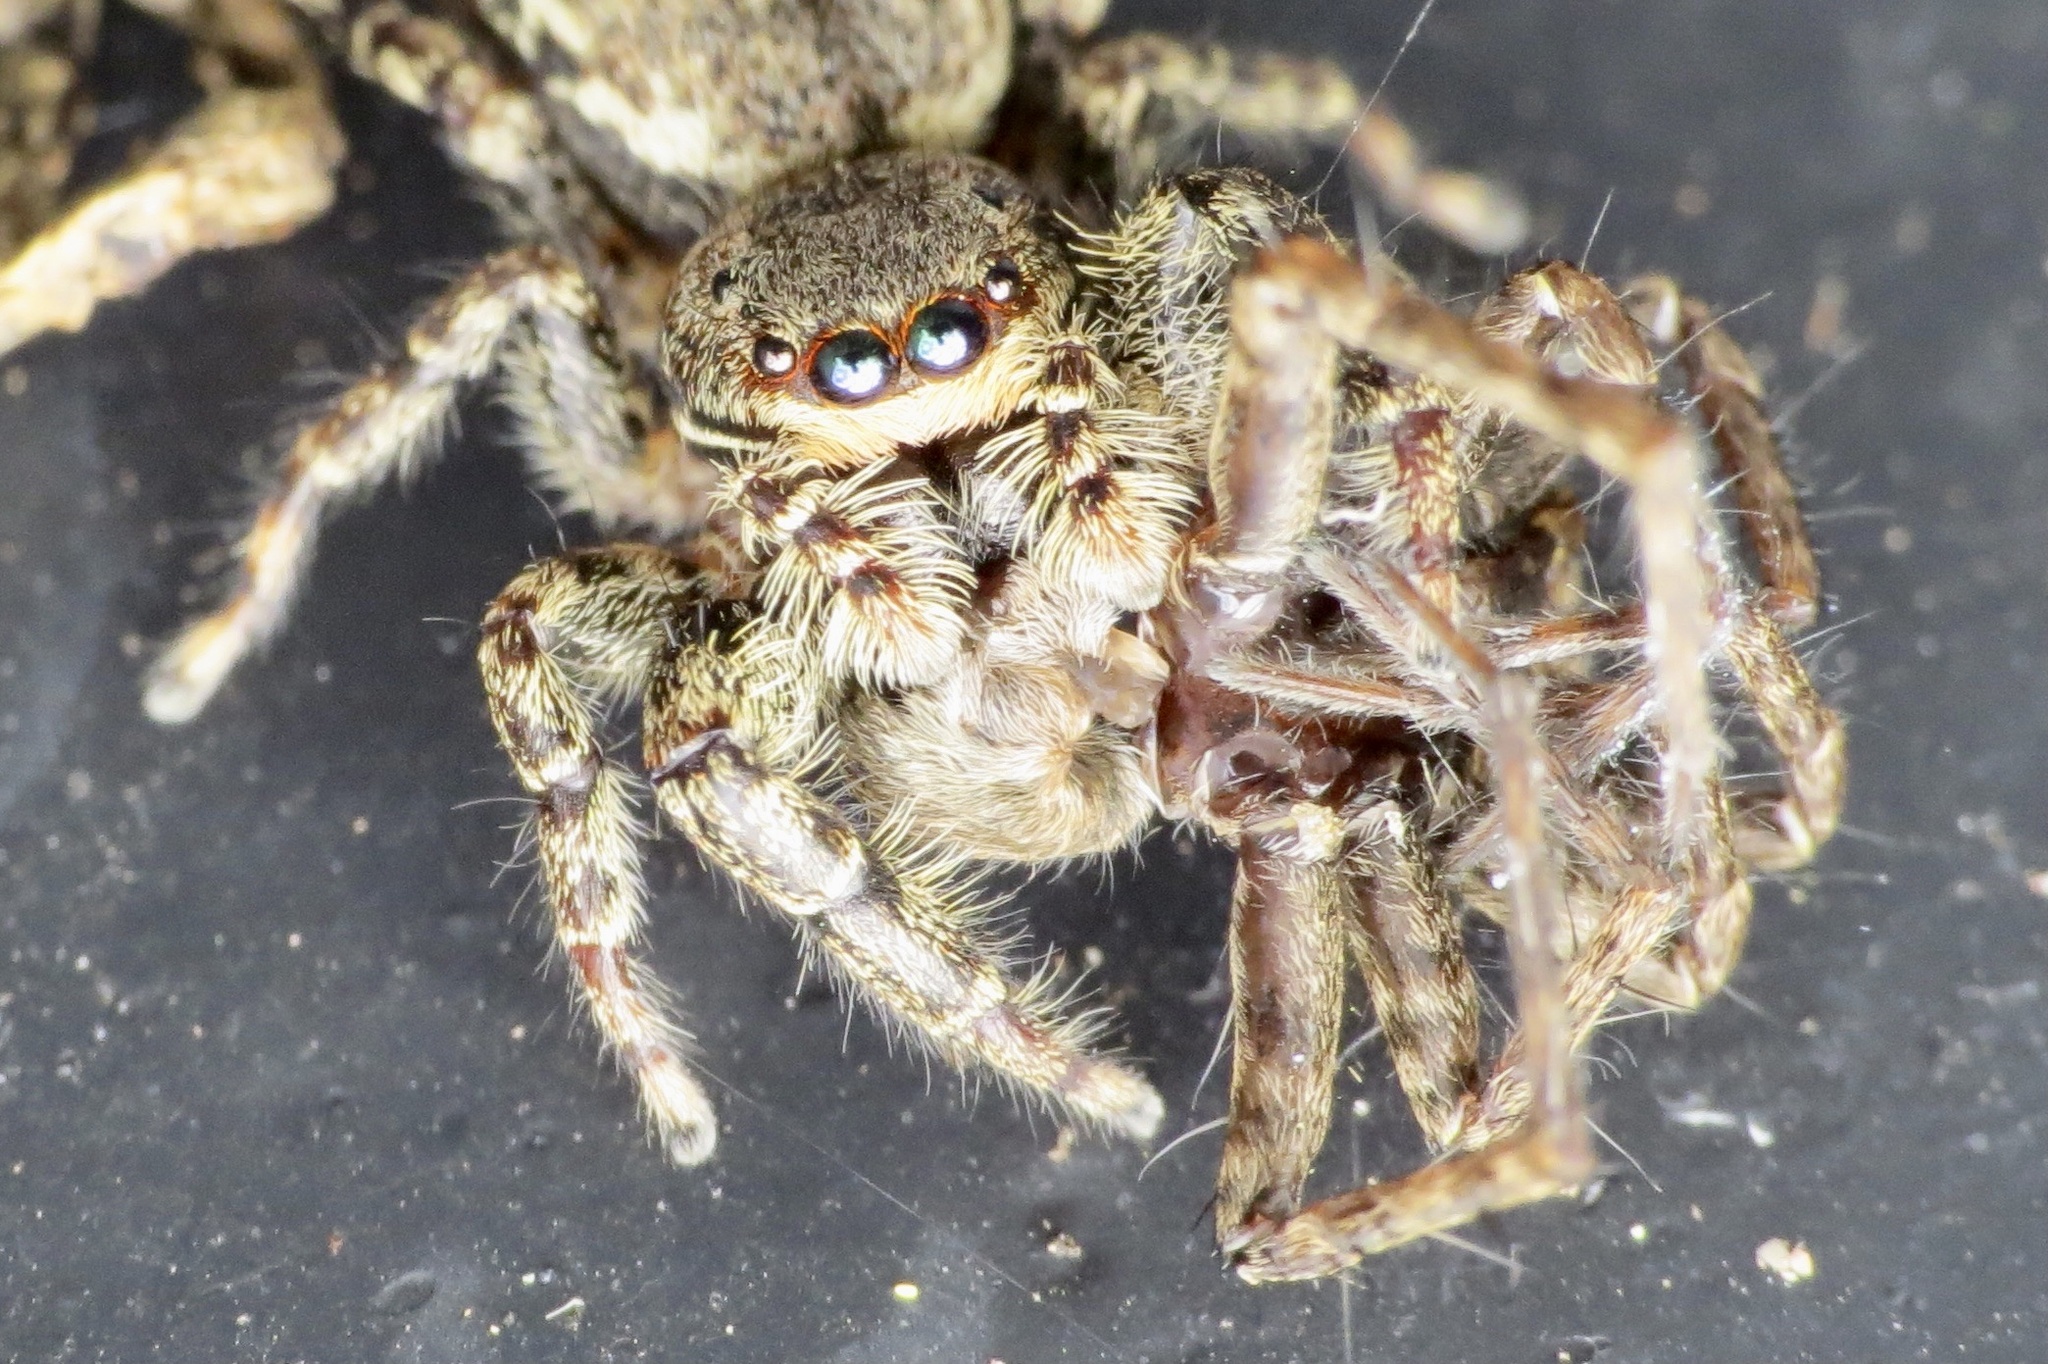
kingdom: Animalia
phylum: Arthropoda
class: Arachnida
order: Araneae
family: Salticidae
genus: Marpissa
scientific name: Marpissa muscosa
